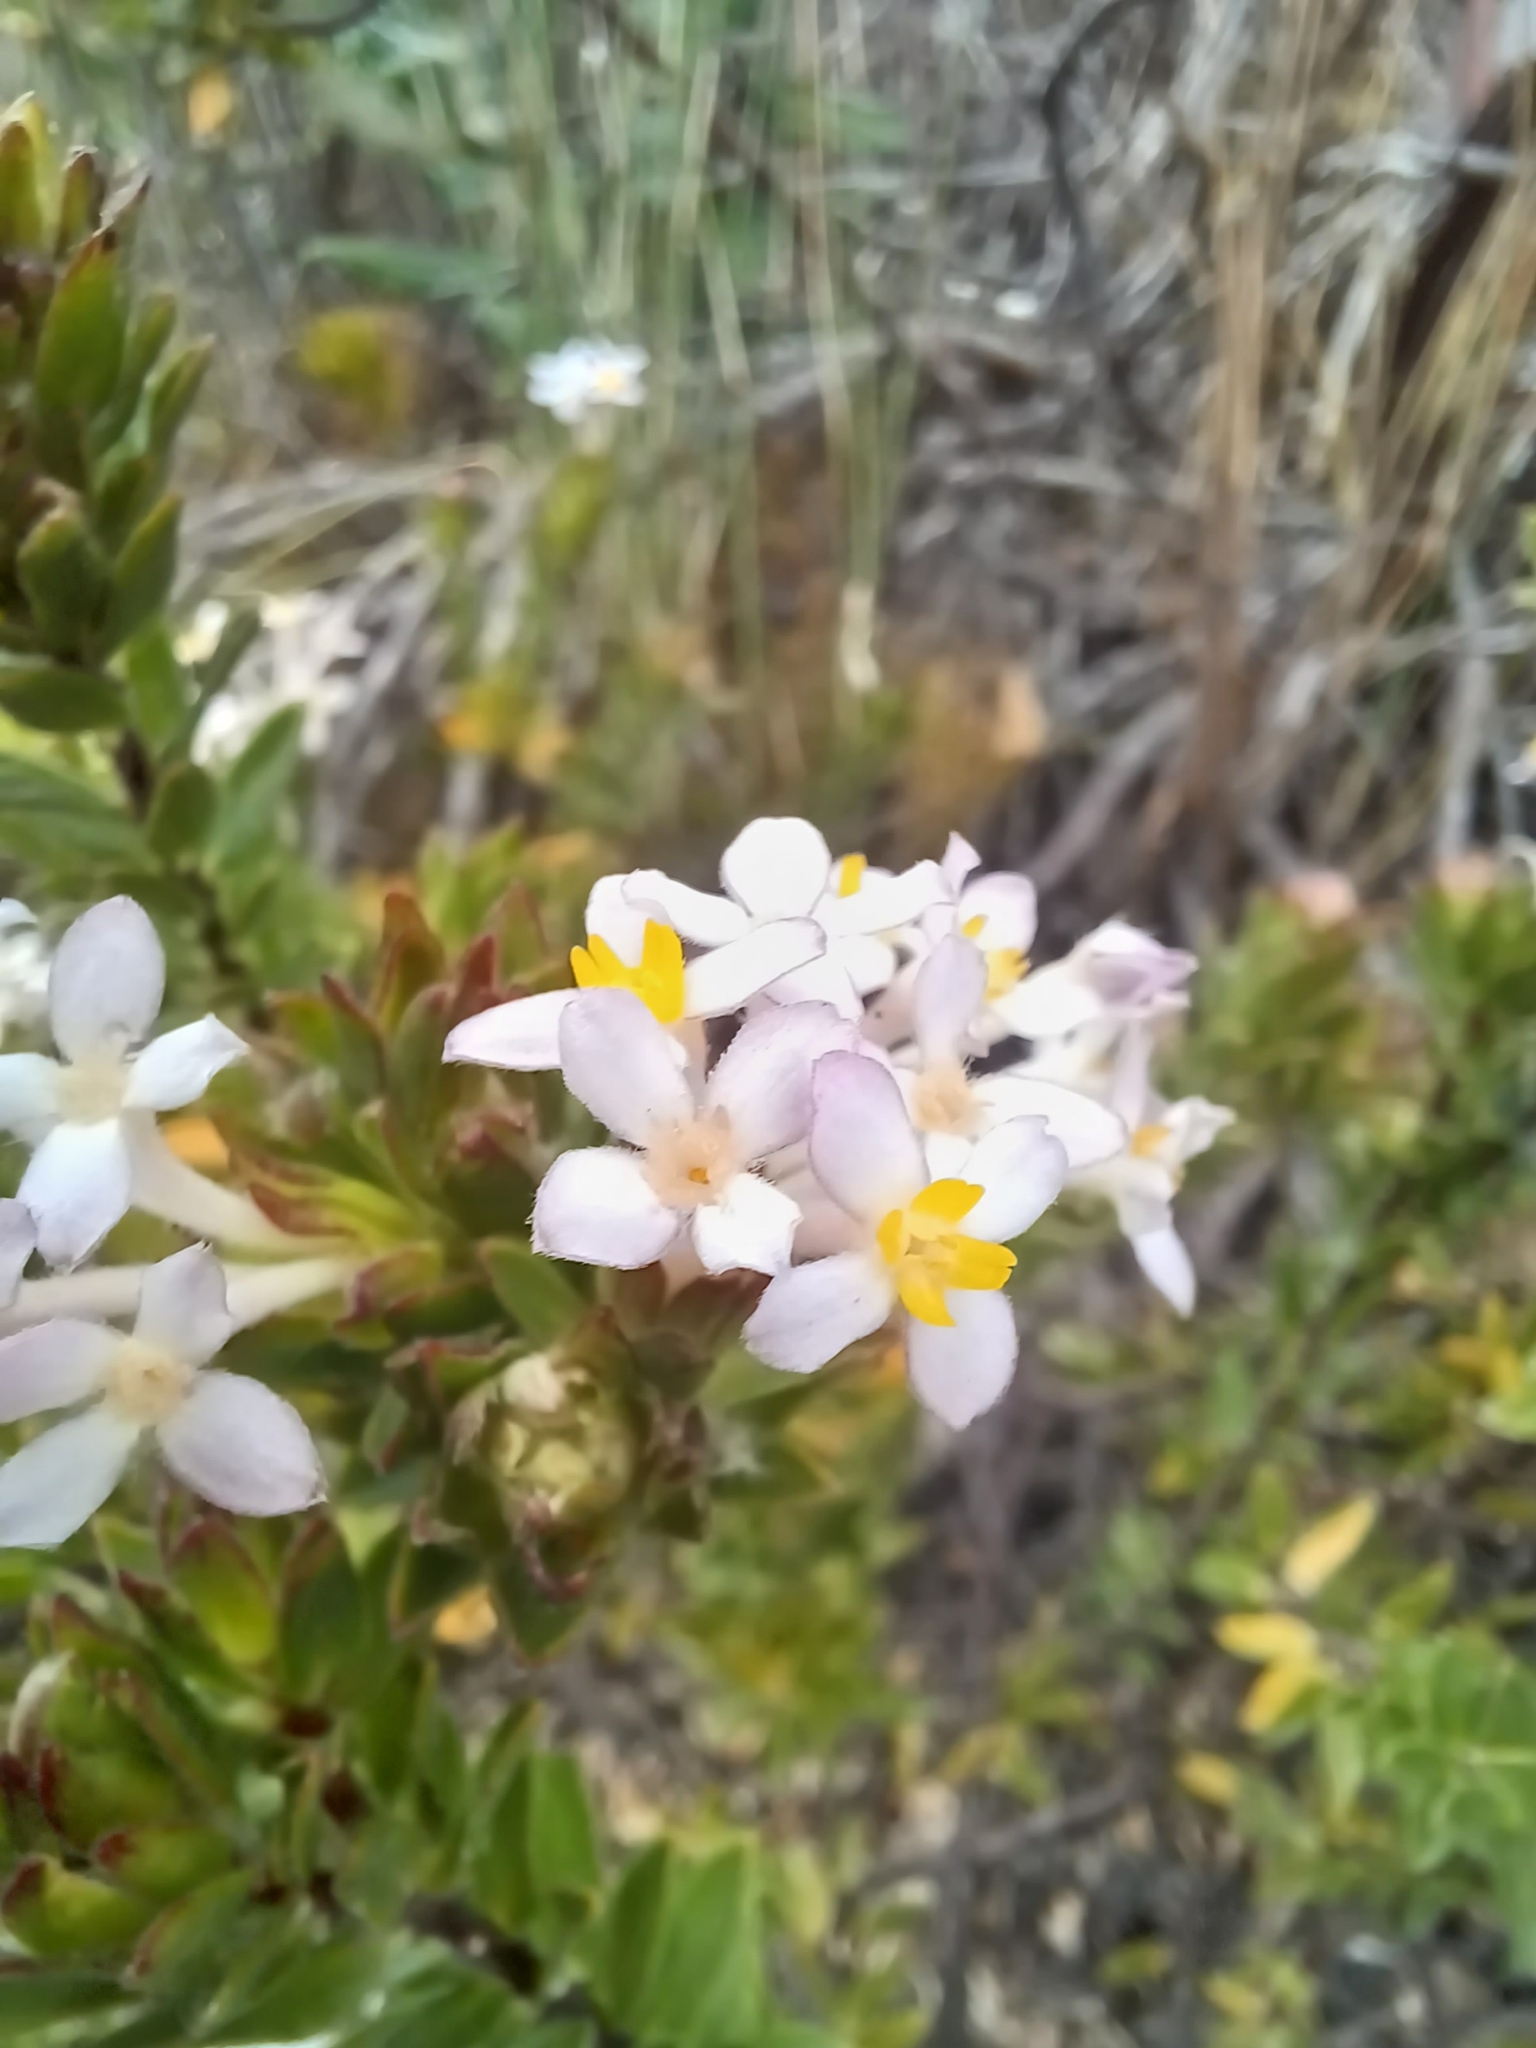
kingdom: Plantae
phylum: Tracheophyta
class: Magnoliopsida
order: Malvales
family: Thymelaeaceae
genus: Gnidia
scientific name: Gnidia tomentosa
